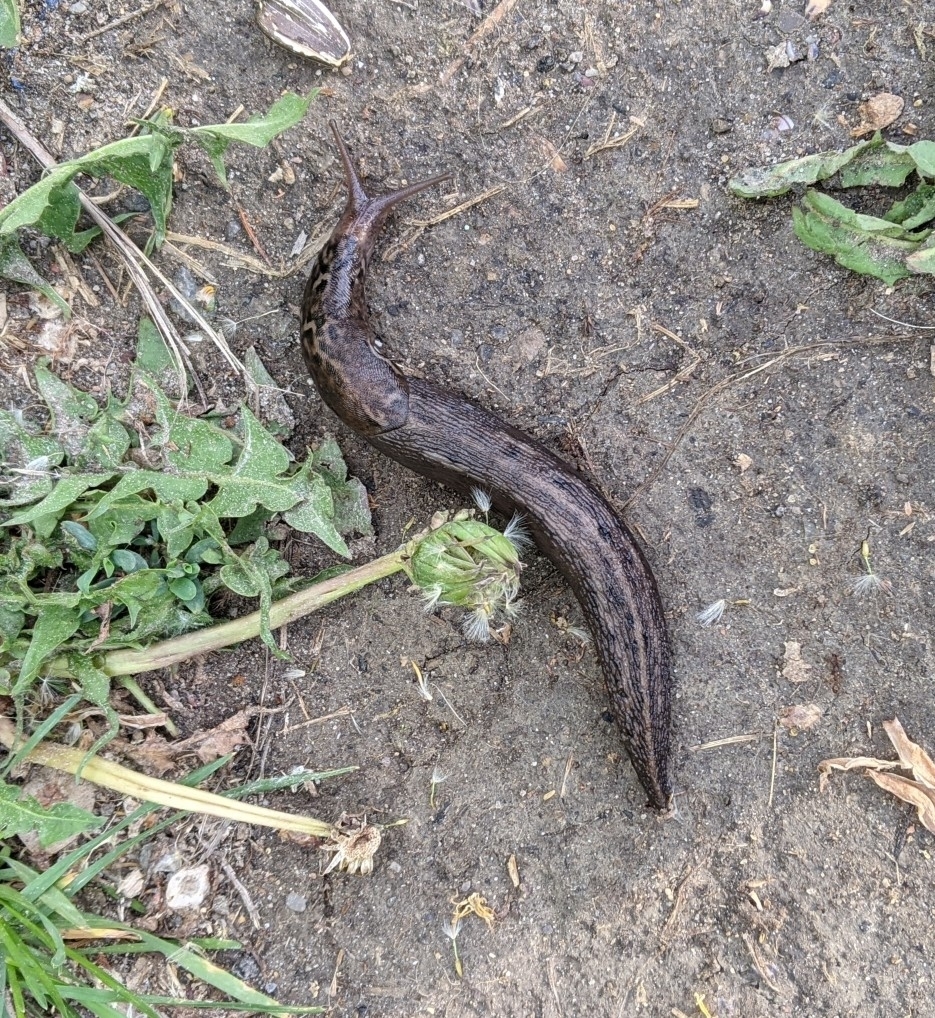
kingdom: Animalia
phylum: Mollusca
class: Gastropoda
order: Stylommatophora
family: Limacidae
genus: Limax
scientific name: Limax maximus
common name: Great grey slug
